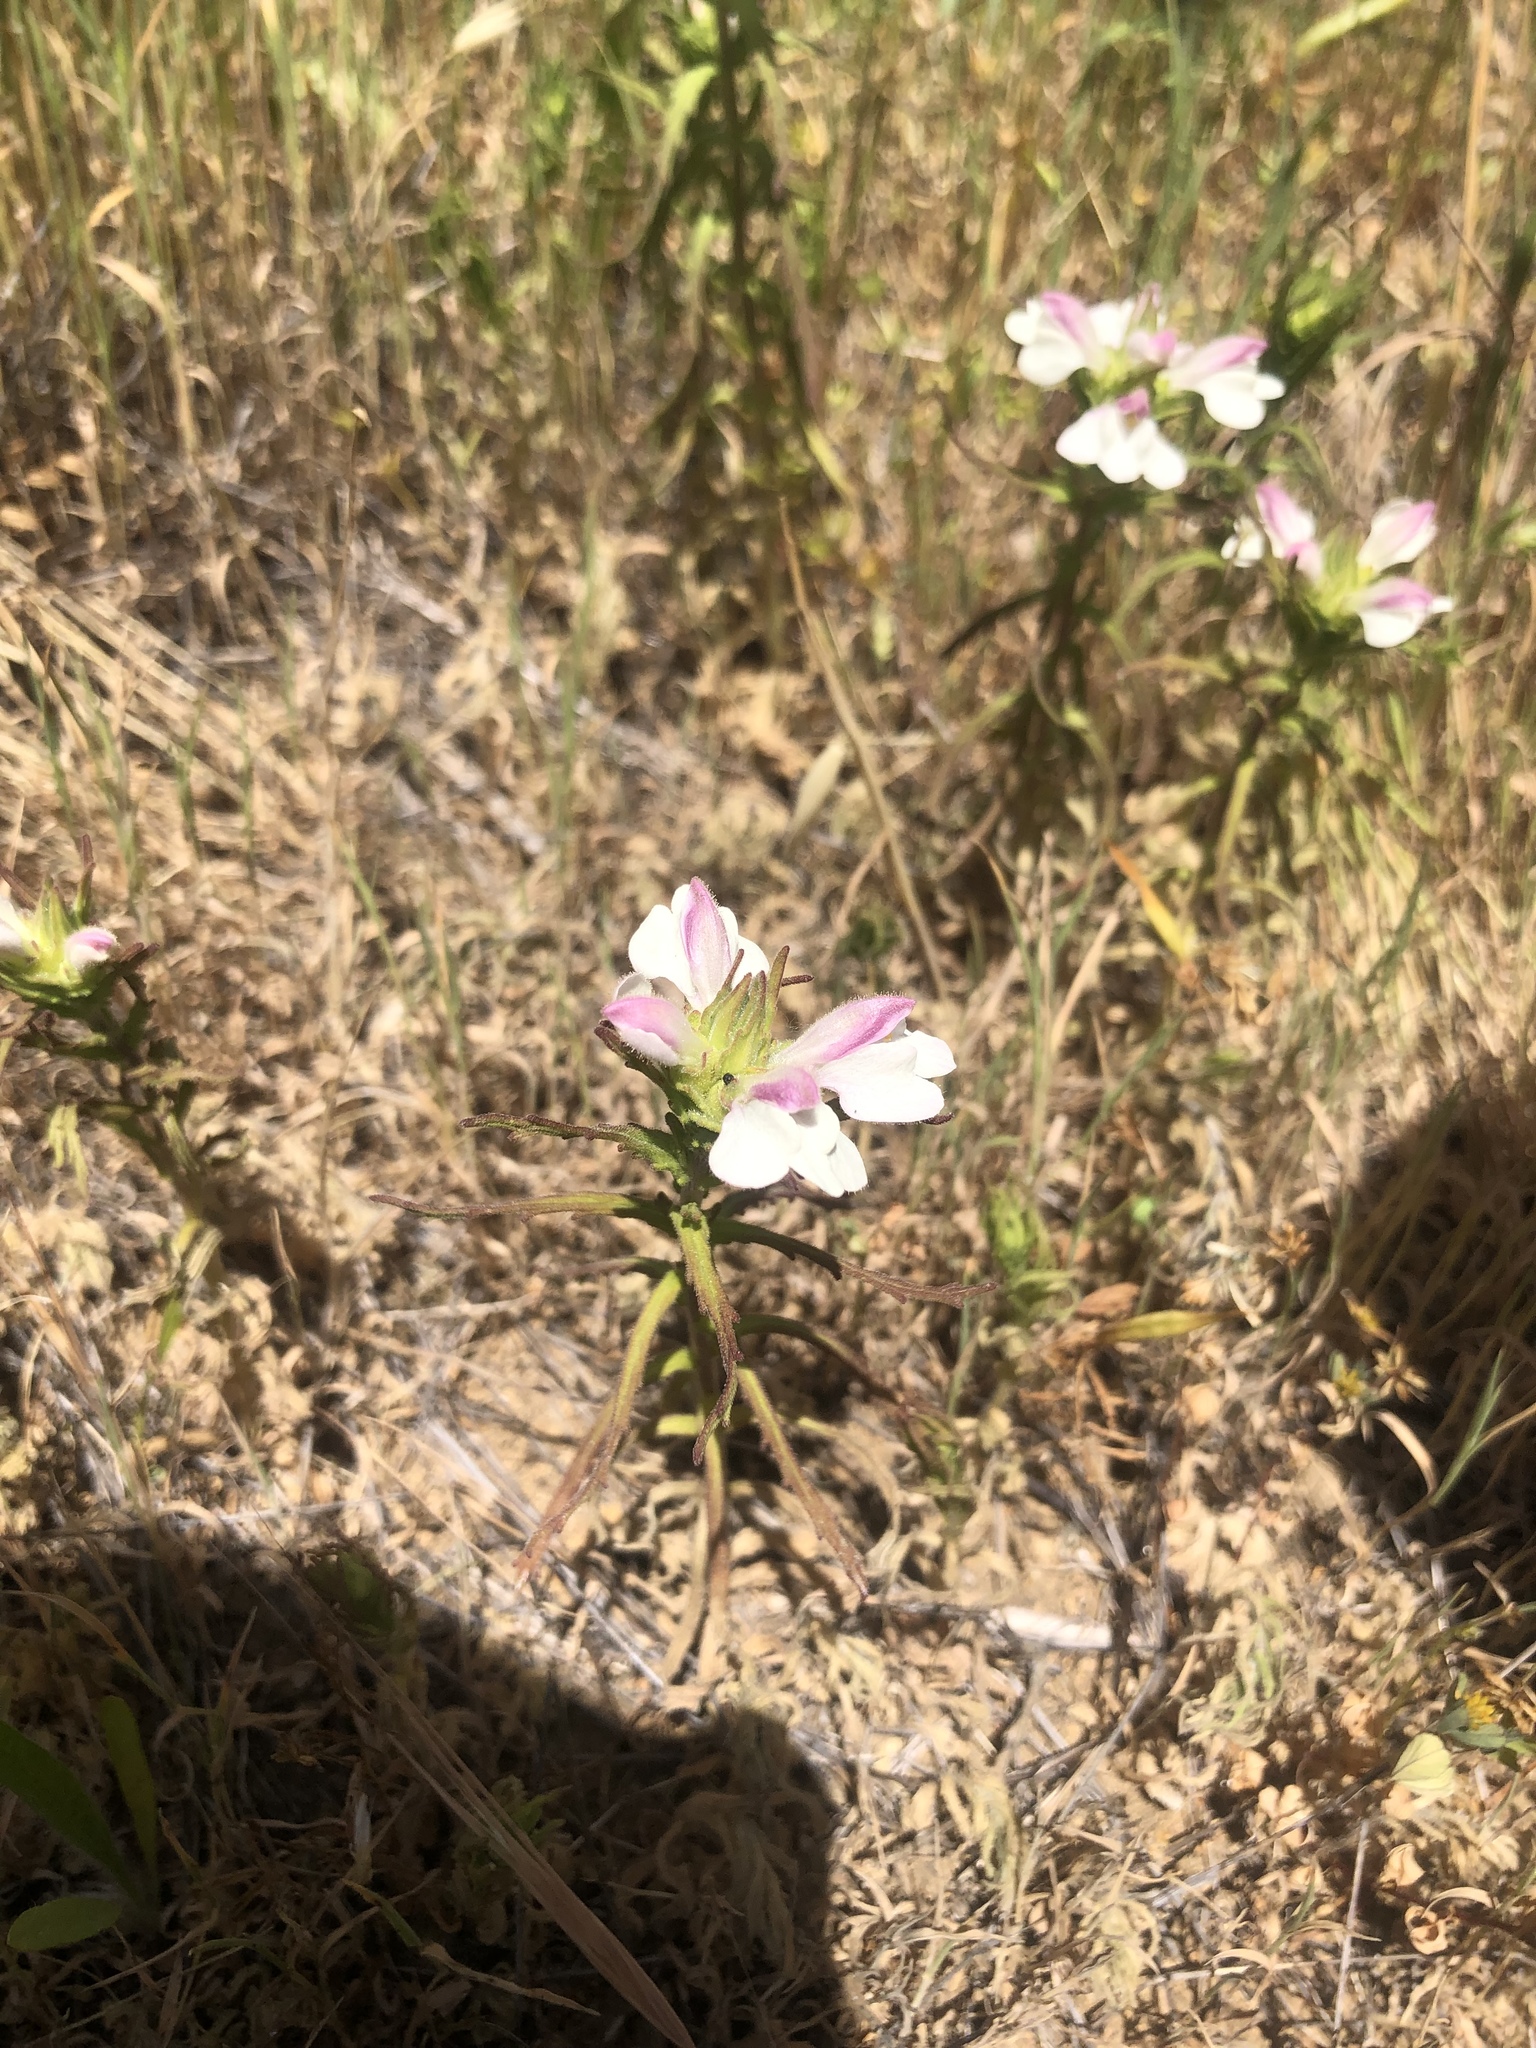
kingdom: Plantae
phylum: Tracheophyta
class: Magnoliopsida
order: Lamiales
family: Orobanchaceae
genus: Bellardia
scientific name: Bellardia trixago
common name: Mediterranean lineseed
